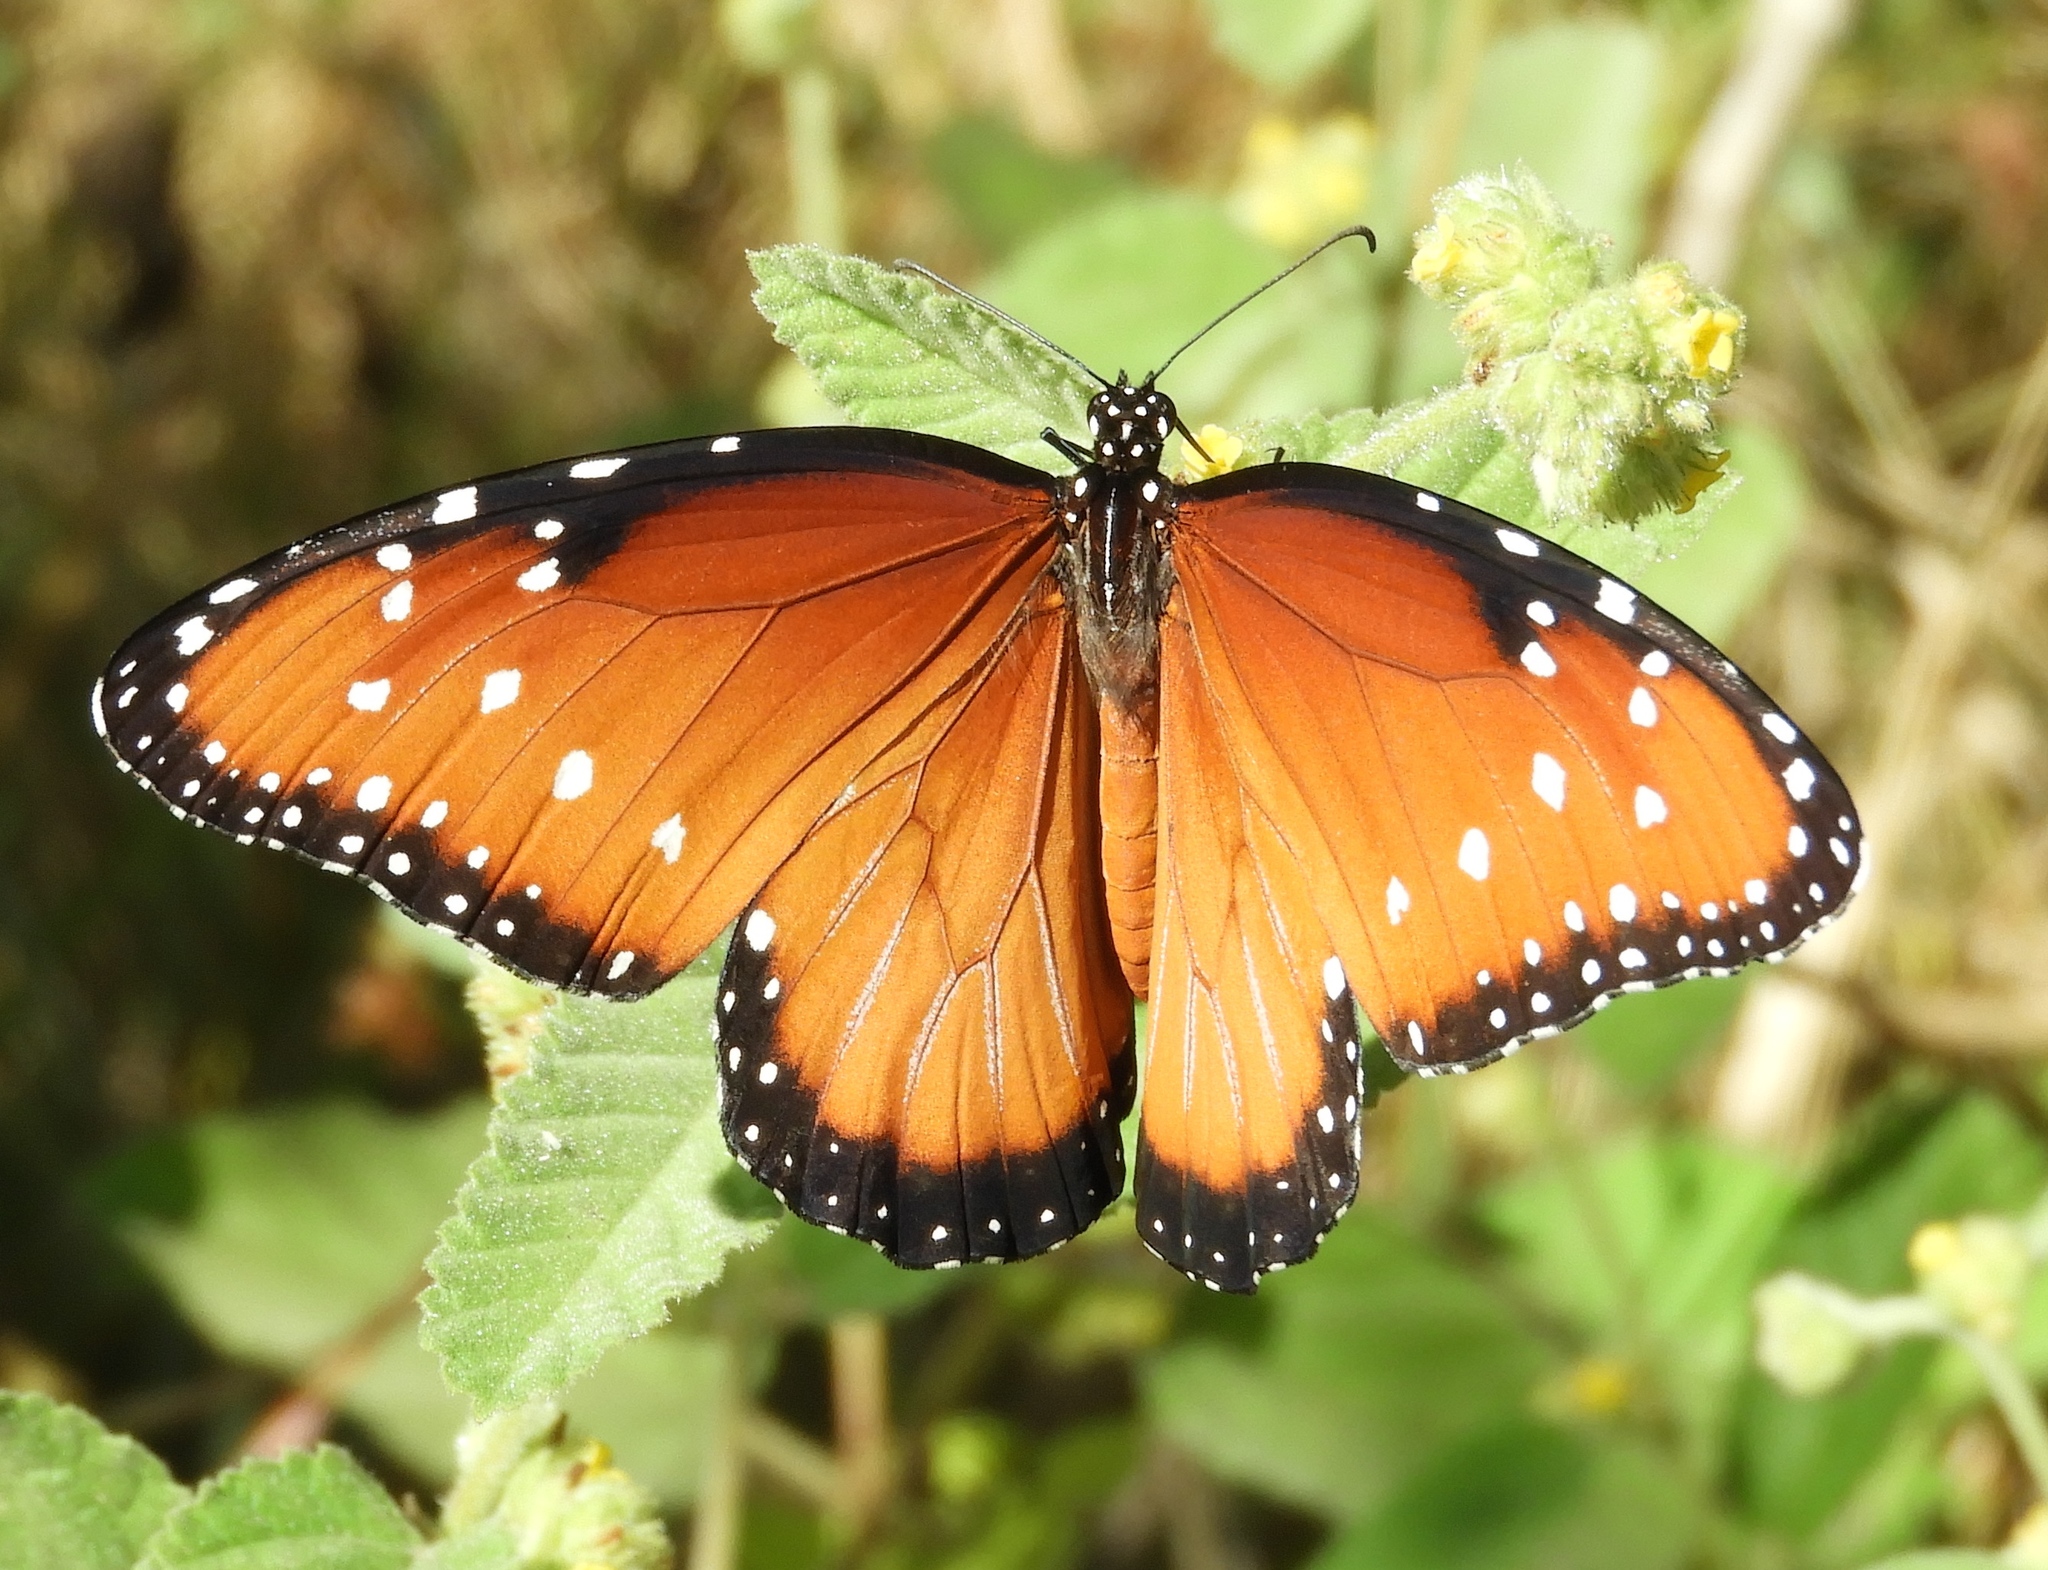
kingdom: Animalia
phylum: Arthropoda
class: Insecta
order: Lepidoptera
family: Nymphalidae
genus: Danaus
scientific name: Danaus gilippus
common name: Queen
